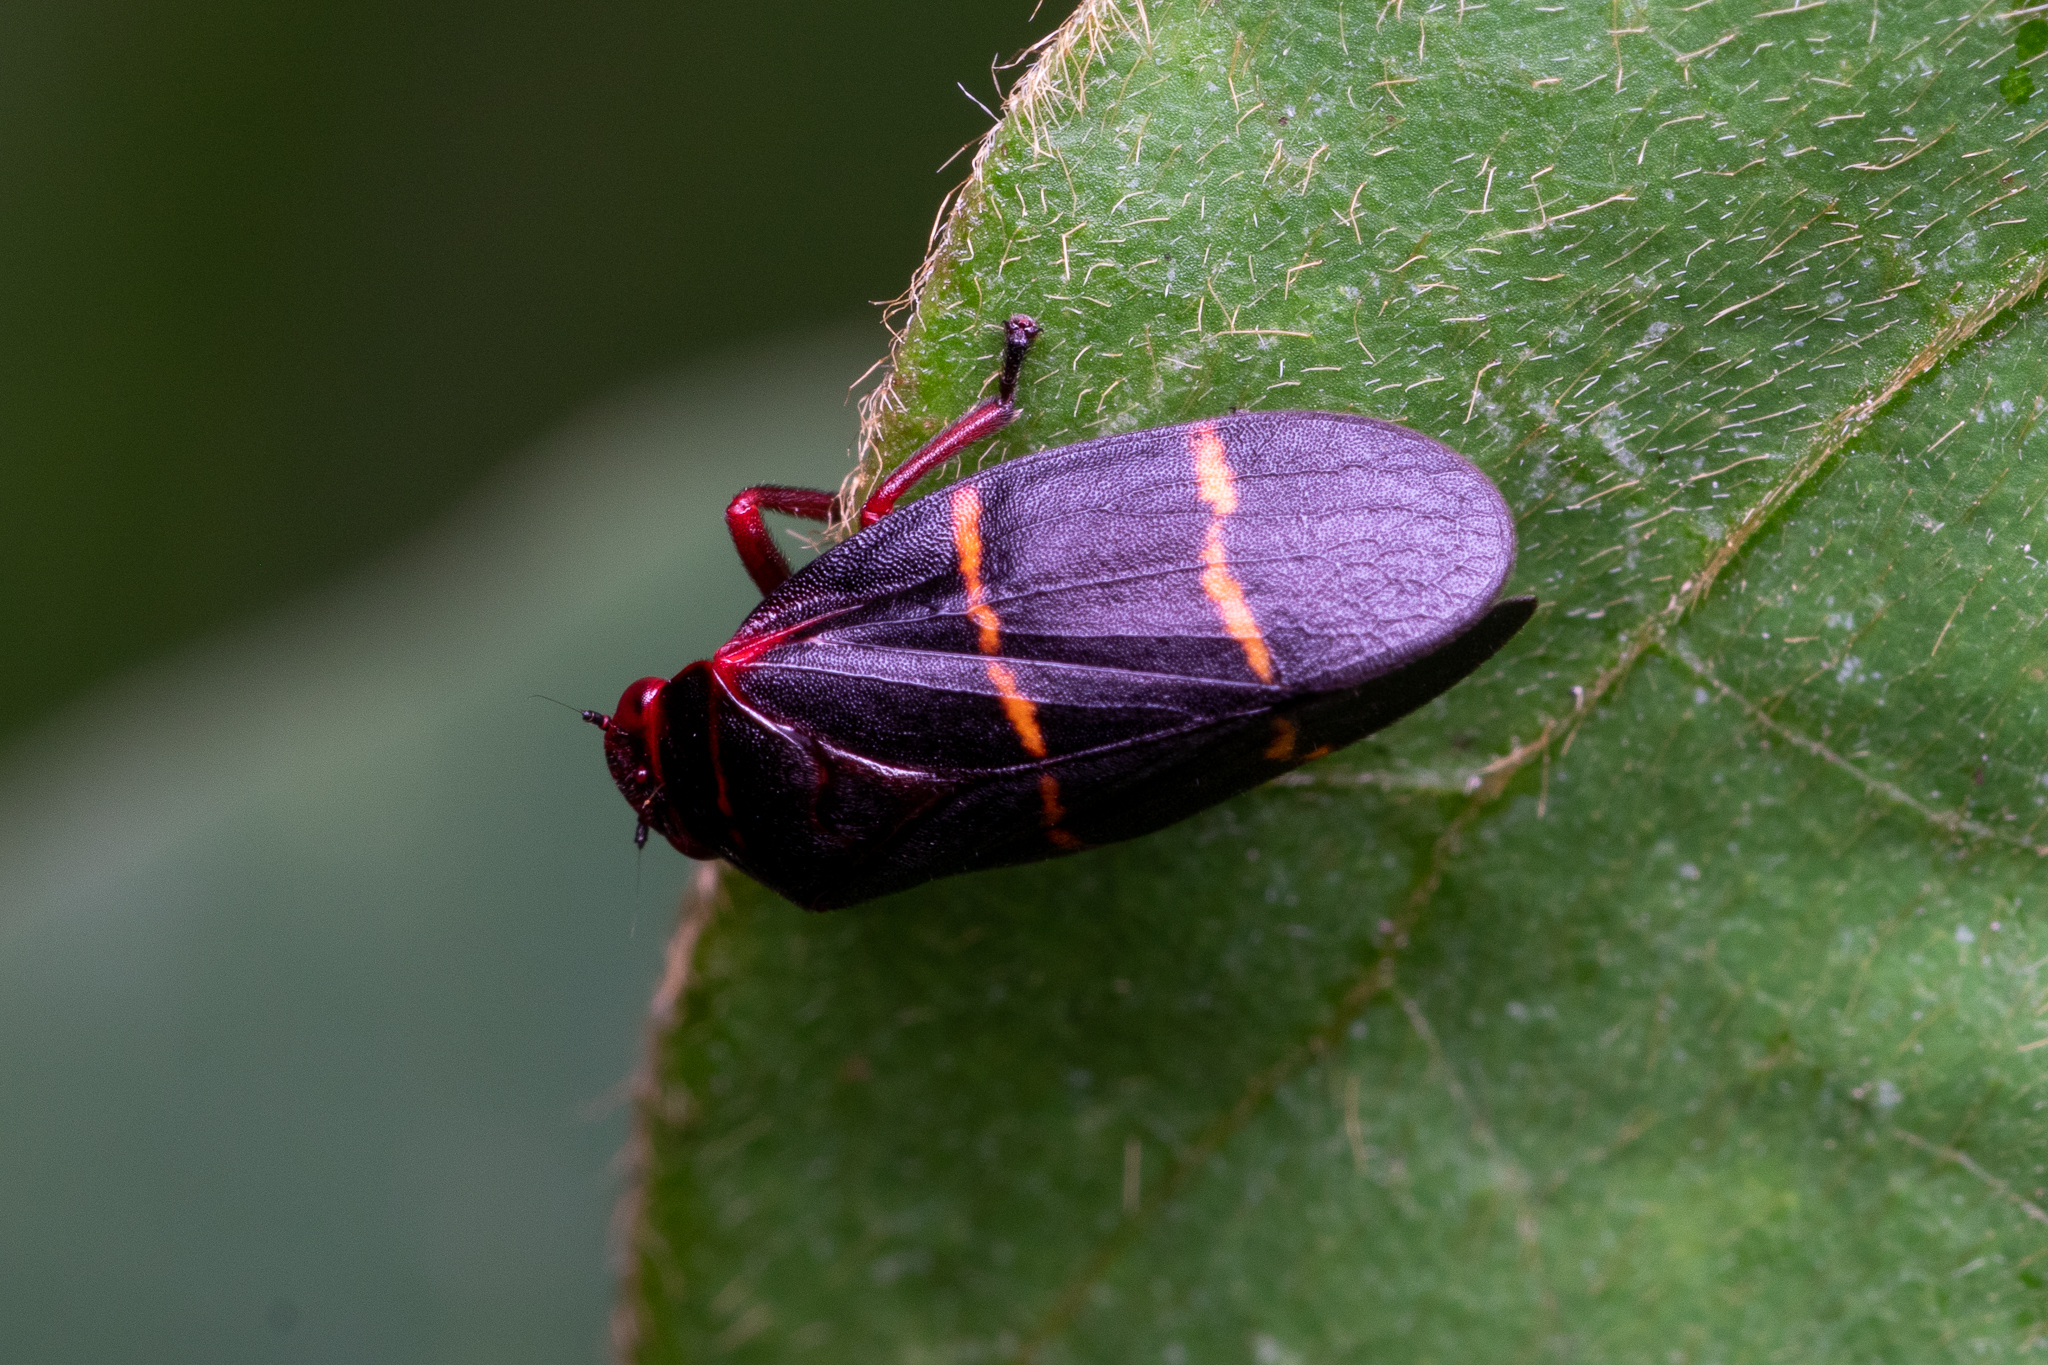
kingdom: Animalia
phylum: Arthropoda
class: Insecta
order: Hemiptera
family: Cercopidae
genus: Prosapia
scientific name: Prosapia bicincta
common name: Twolined spittlebug
